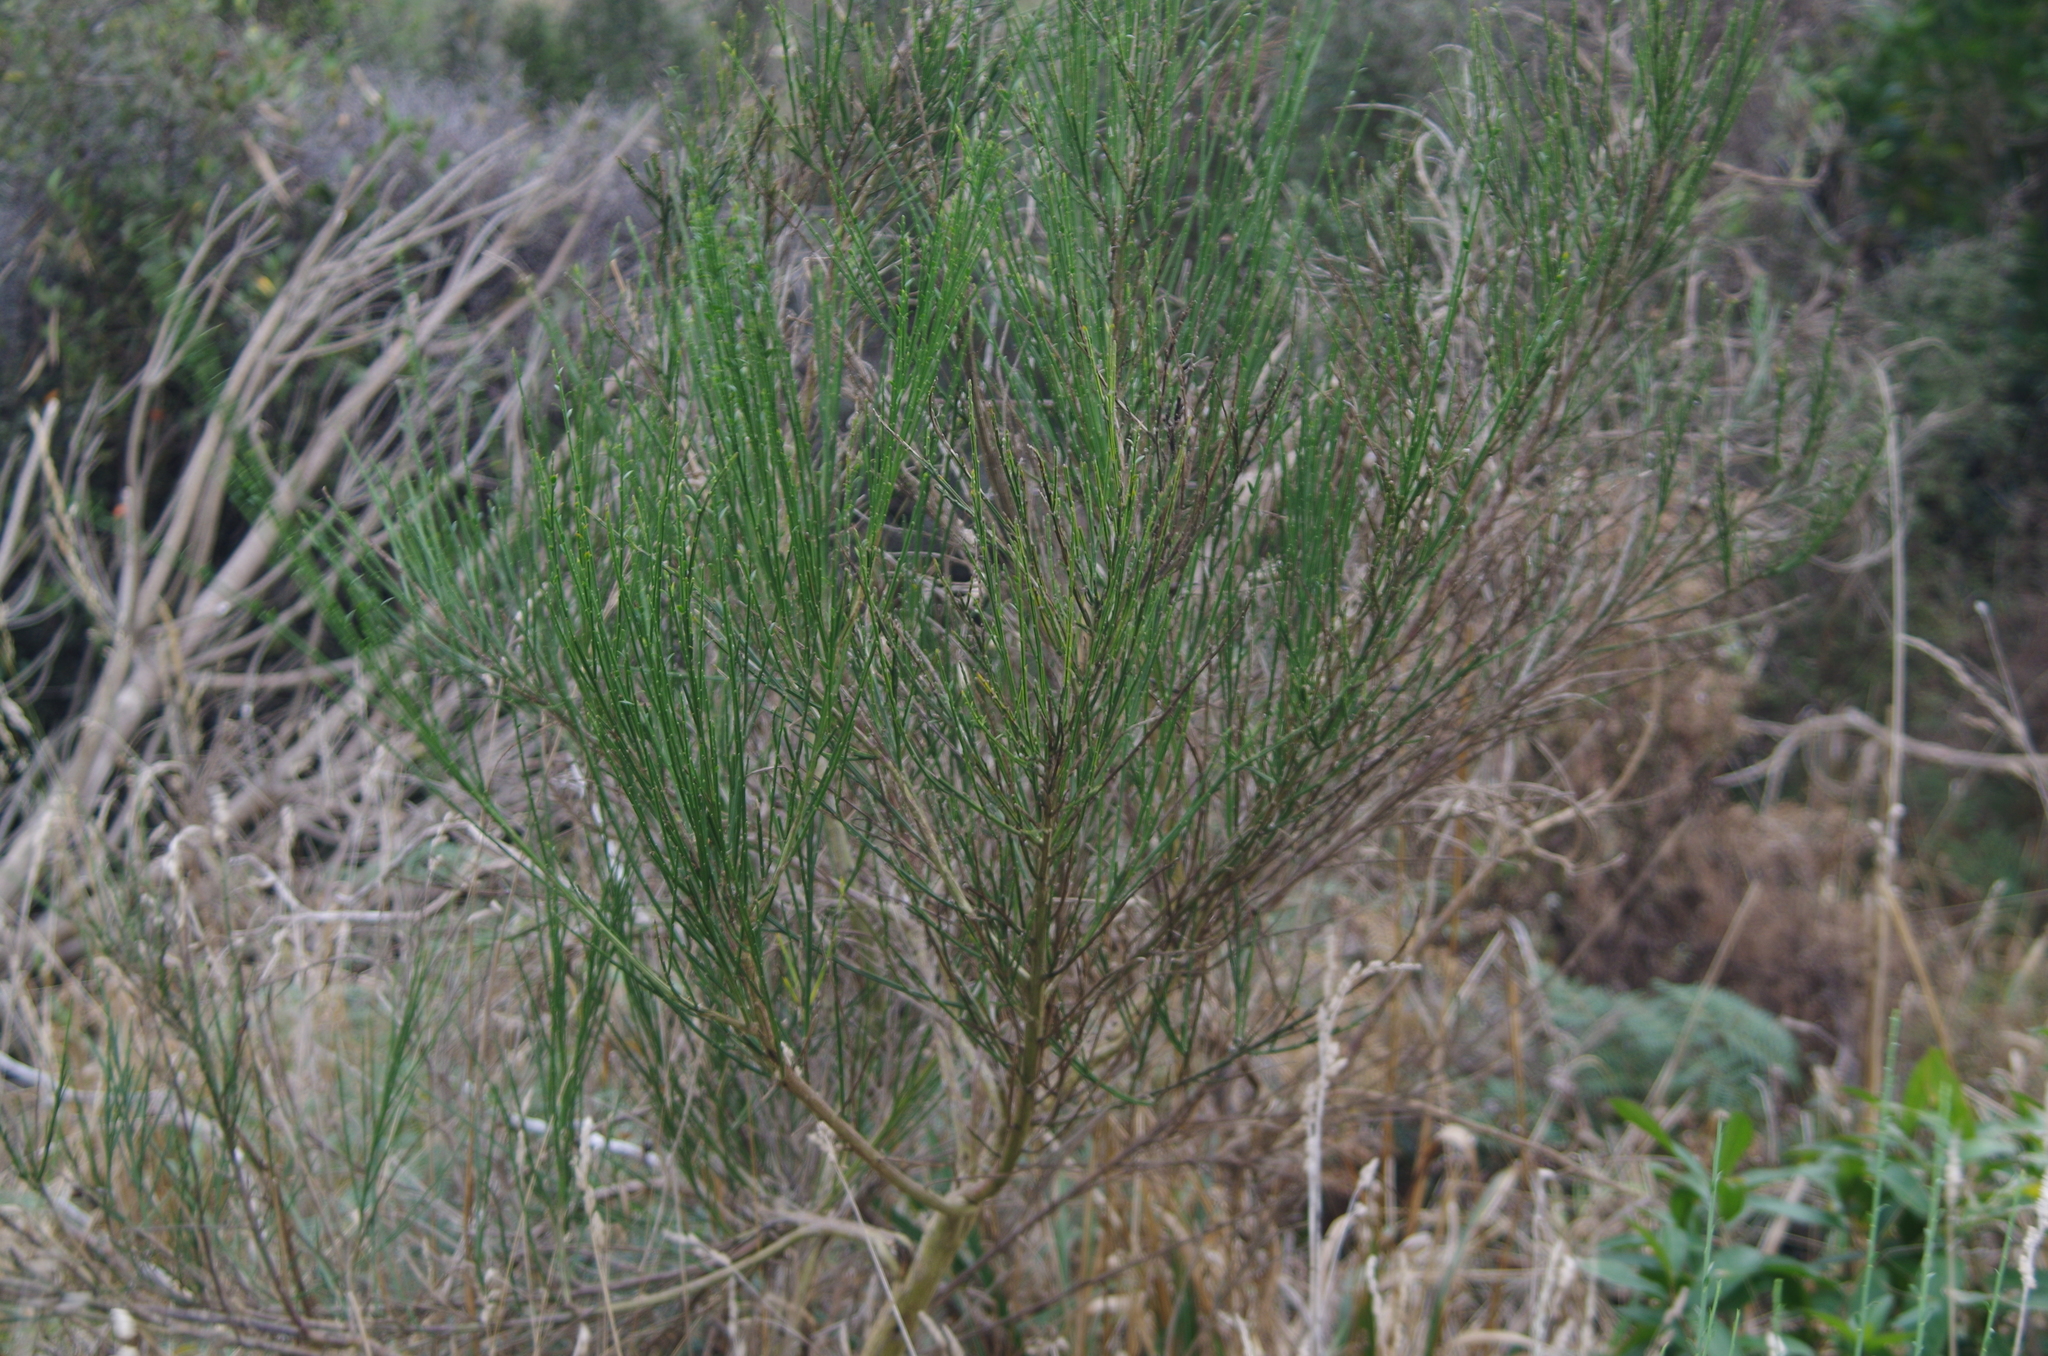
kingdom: Plantae
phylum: Tracheophyta
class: Magnoliopsida
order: Fabales
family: Fabaceae
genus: Cytisus
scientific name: Cytisus scoparius
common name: Scotch broom
